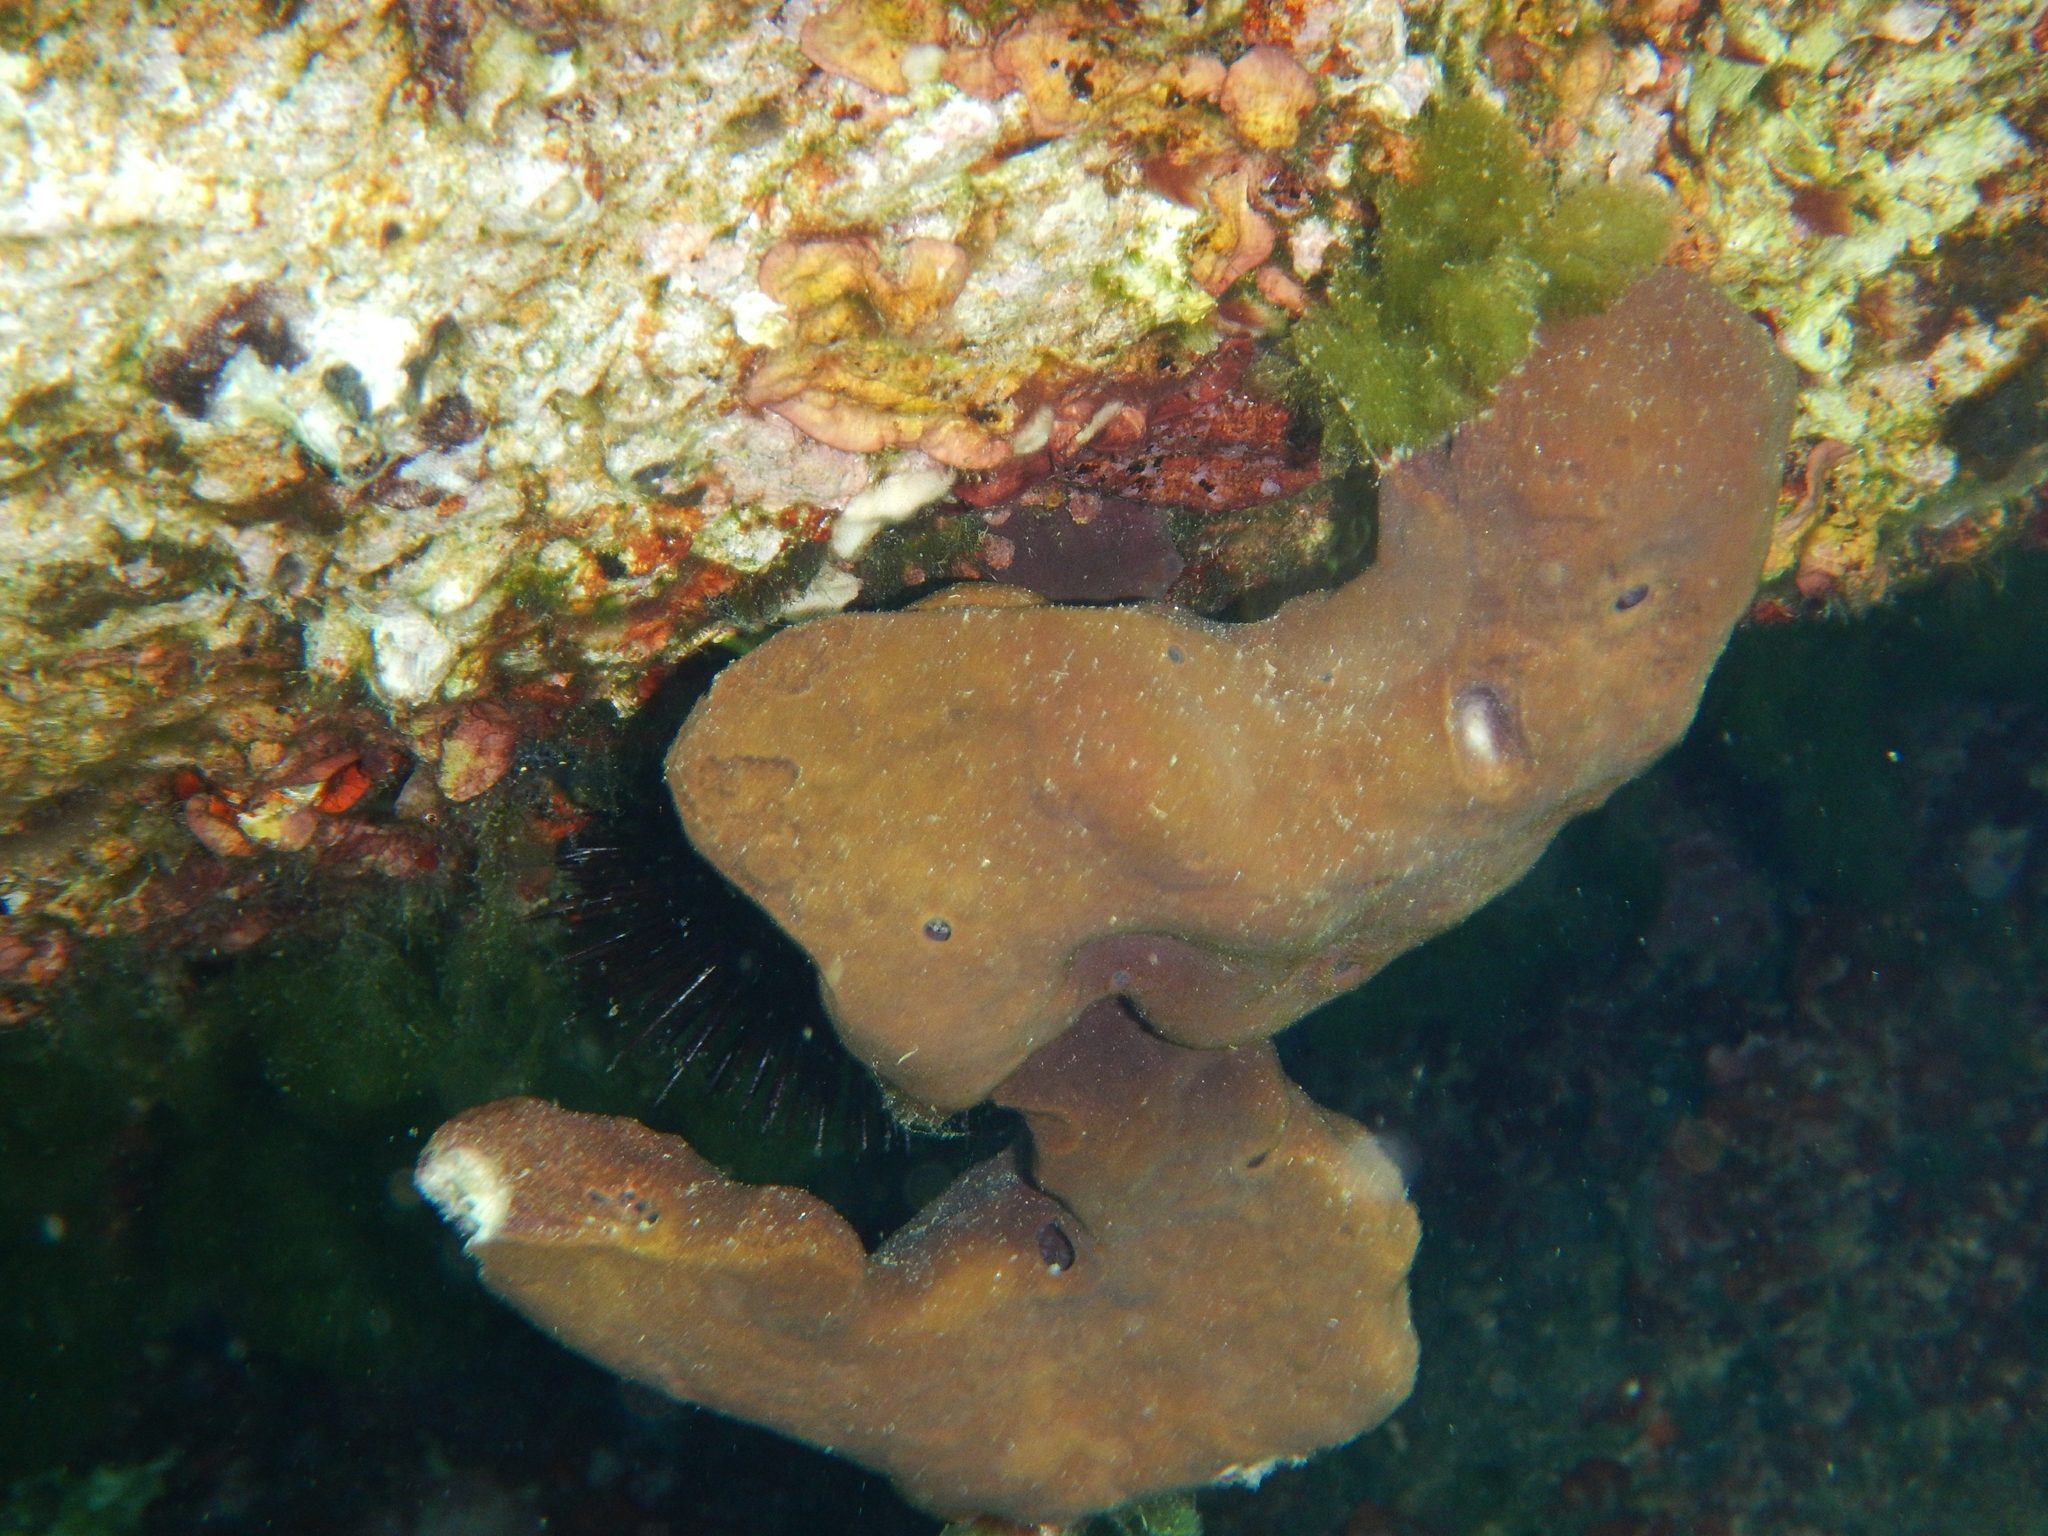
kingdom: Animalia
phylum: Porifera
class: Demospongiae
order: Haplosclerida
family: Petrosiidae
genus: Petrosia
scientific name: Petrosia ficiformis
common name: Stony sponge
